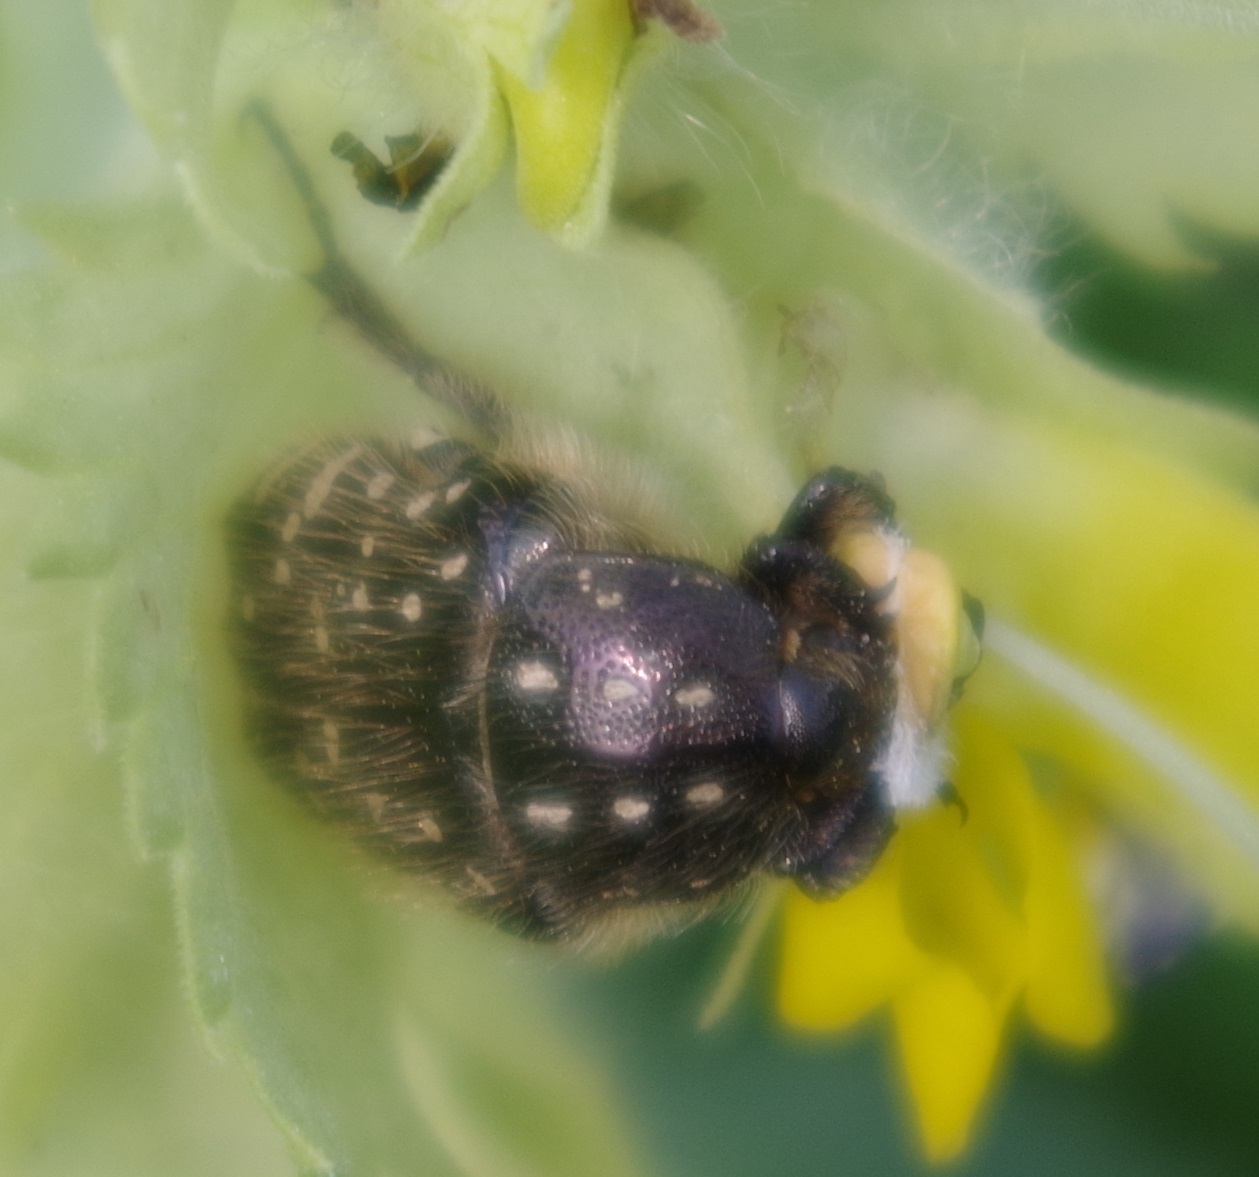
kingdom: Animalia
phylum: Arthropoda
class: Insecta
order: Coleoptera
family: Scarabaeidae
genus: Oxythyrea
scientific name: Oxythyrea funesta
